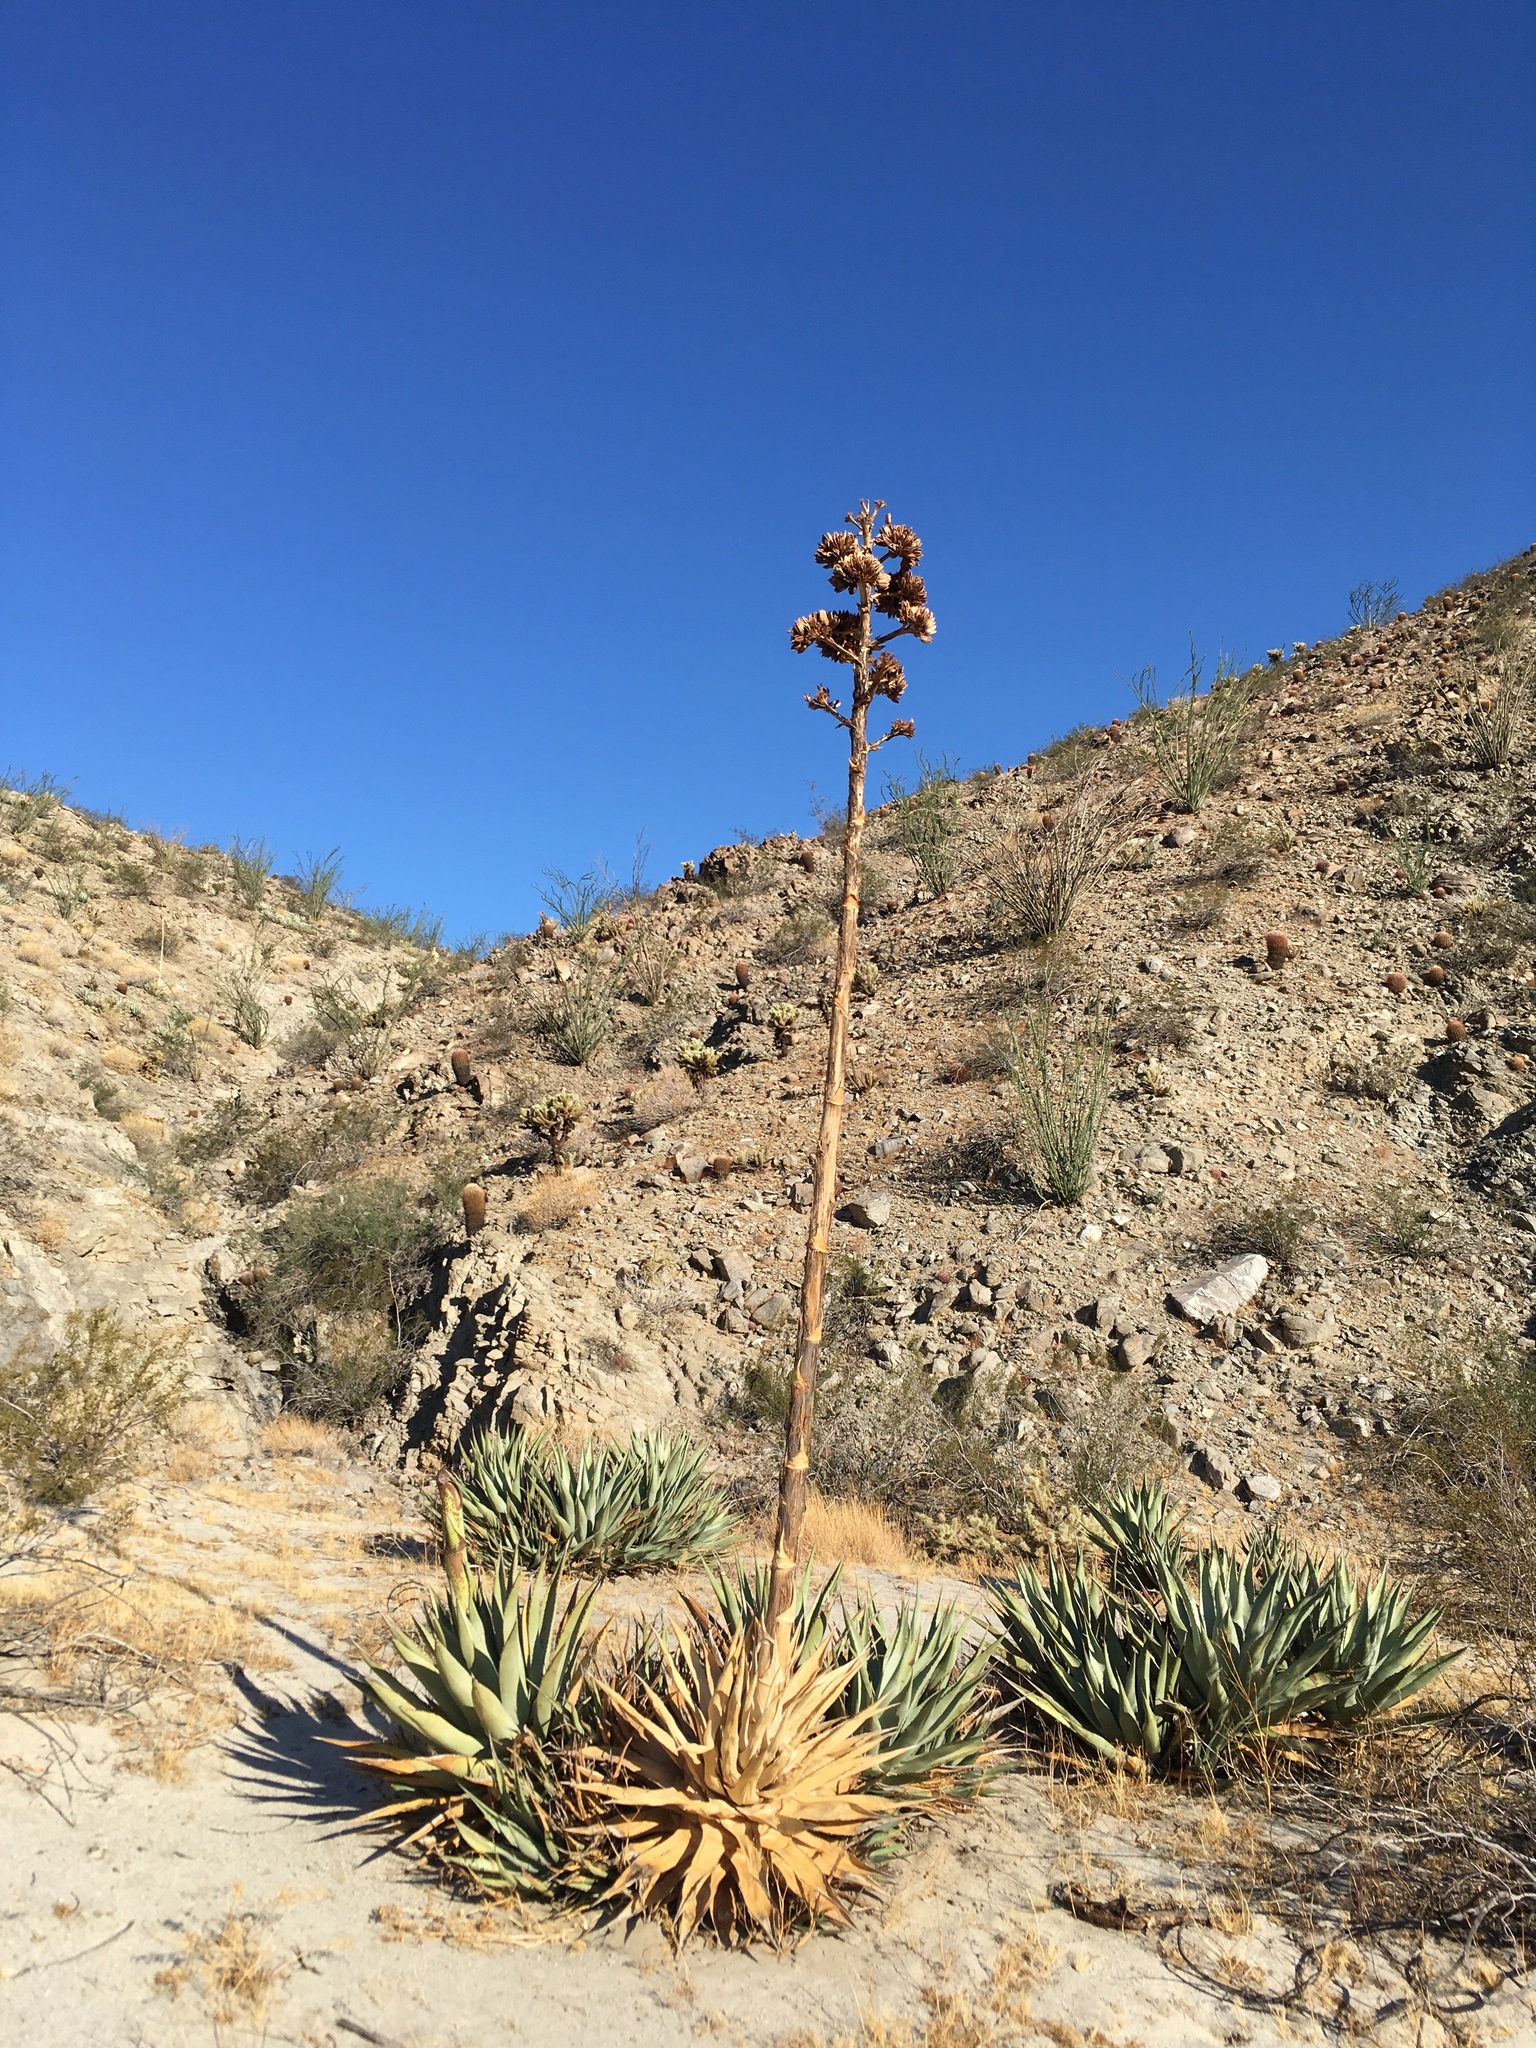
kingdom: Plantae
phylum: Tracheophyta
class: Liliopsida
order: Asparagales
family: Asparagaceae
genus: Agave
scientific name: Agave deserti
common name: Desert agave
